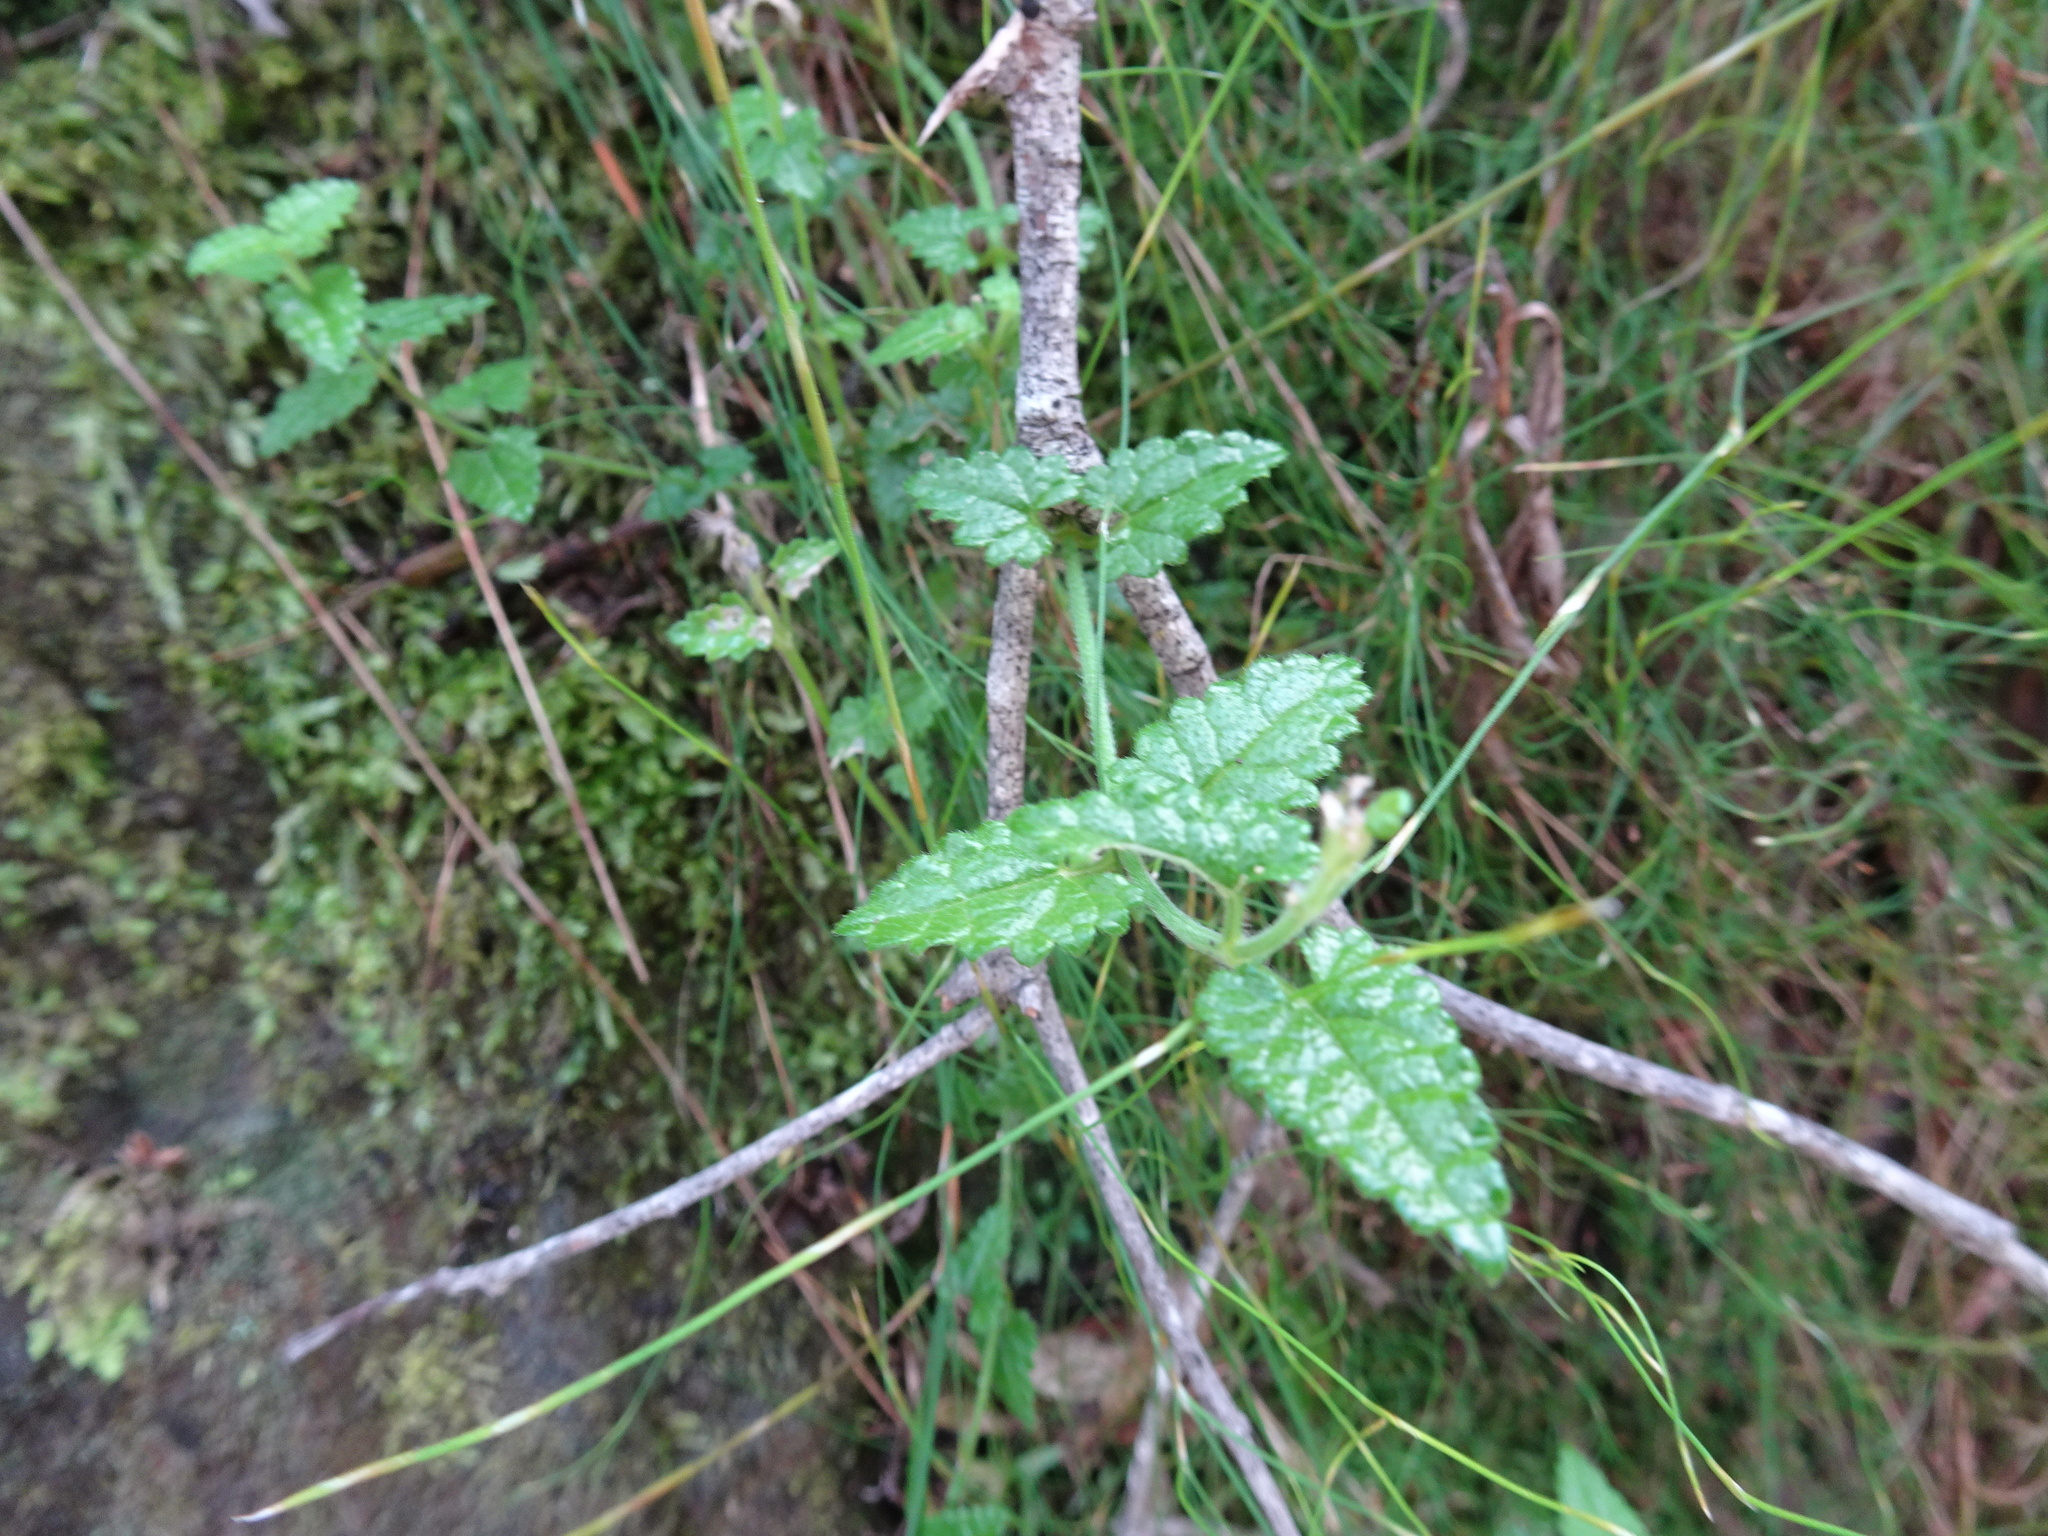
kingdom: Plantae
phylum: Tracheophyta
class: Magnoliopsida
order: Lamiales
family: Lamiaceae
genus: Stachys
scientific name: Stachys aethiopica
